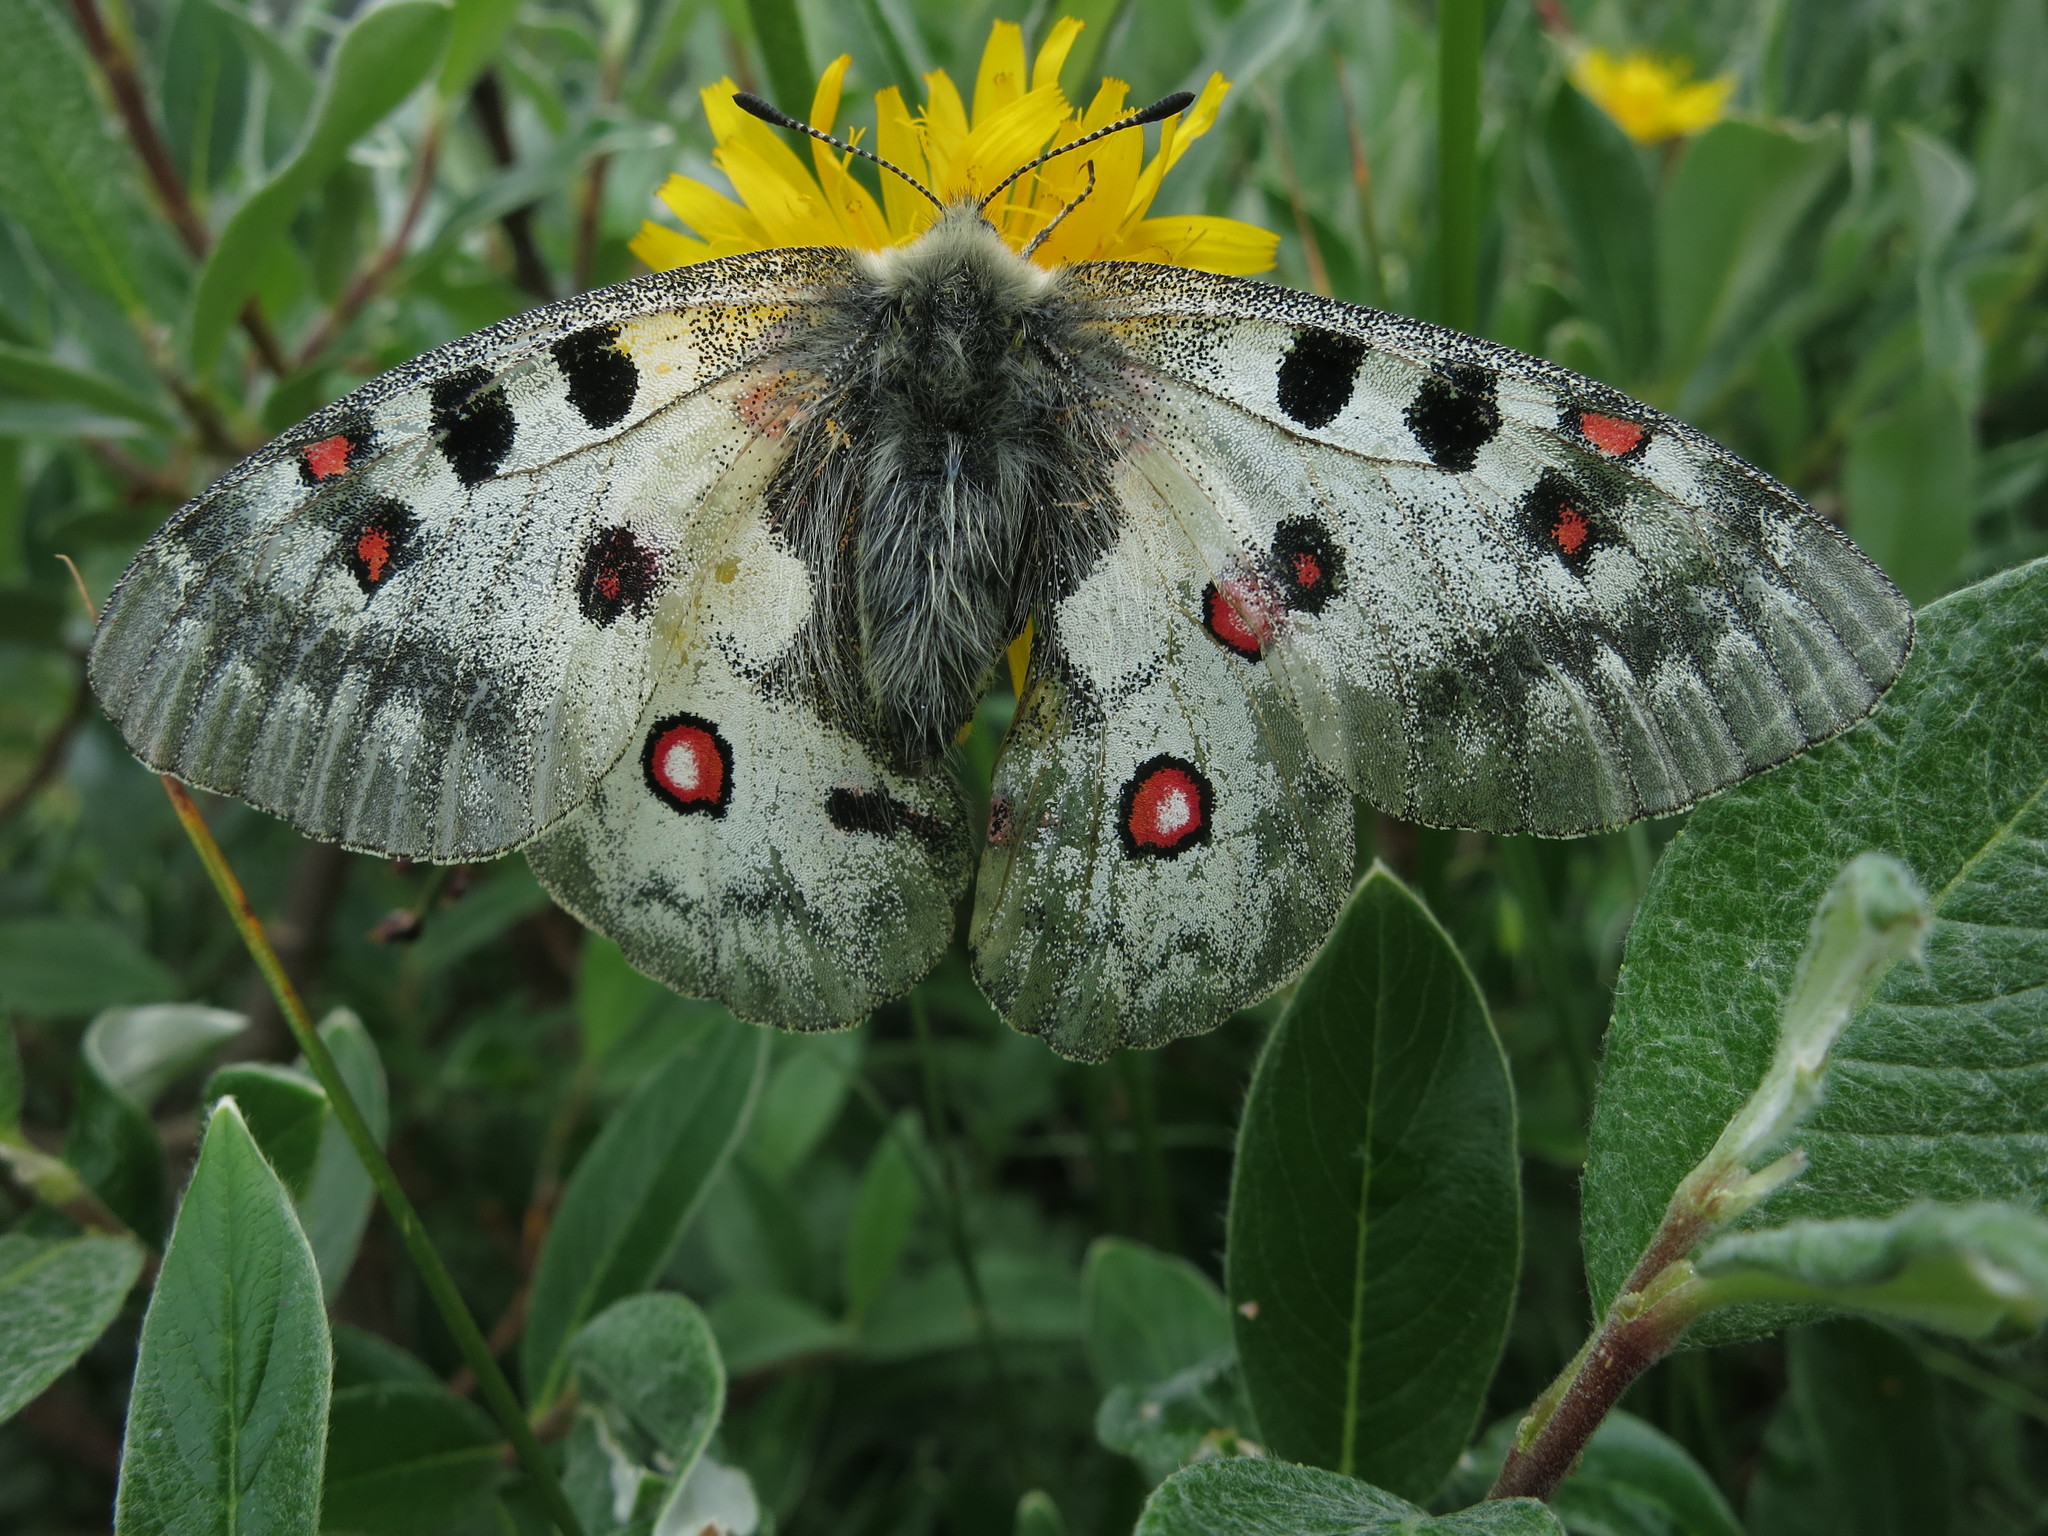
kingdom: Animalia
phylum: Arthropoda
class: Insecta
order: Lepidoptera
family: Papilionidae
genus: Parnassius
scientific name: Parnassius phoebus
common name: Small apollo
